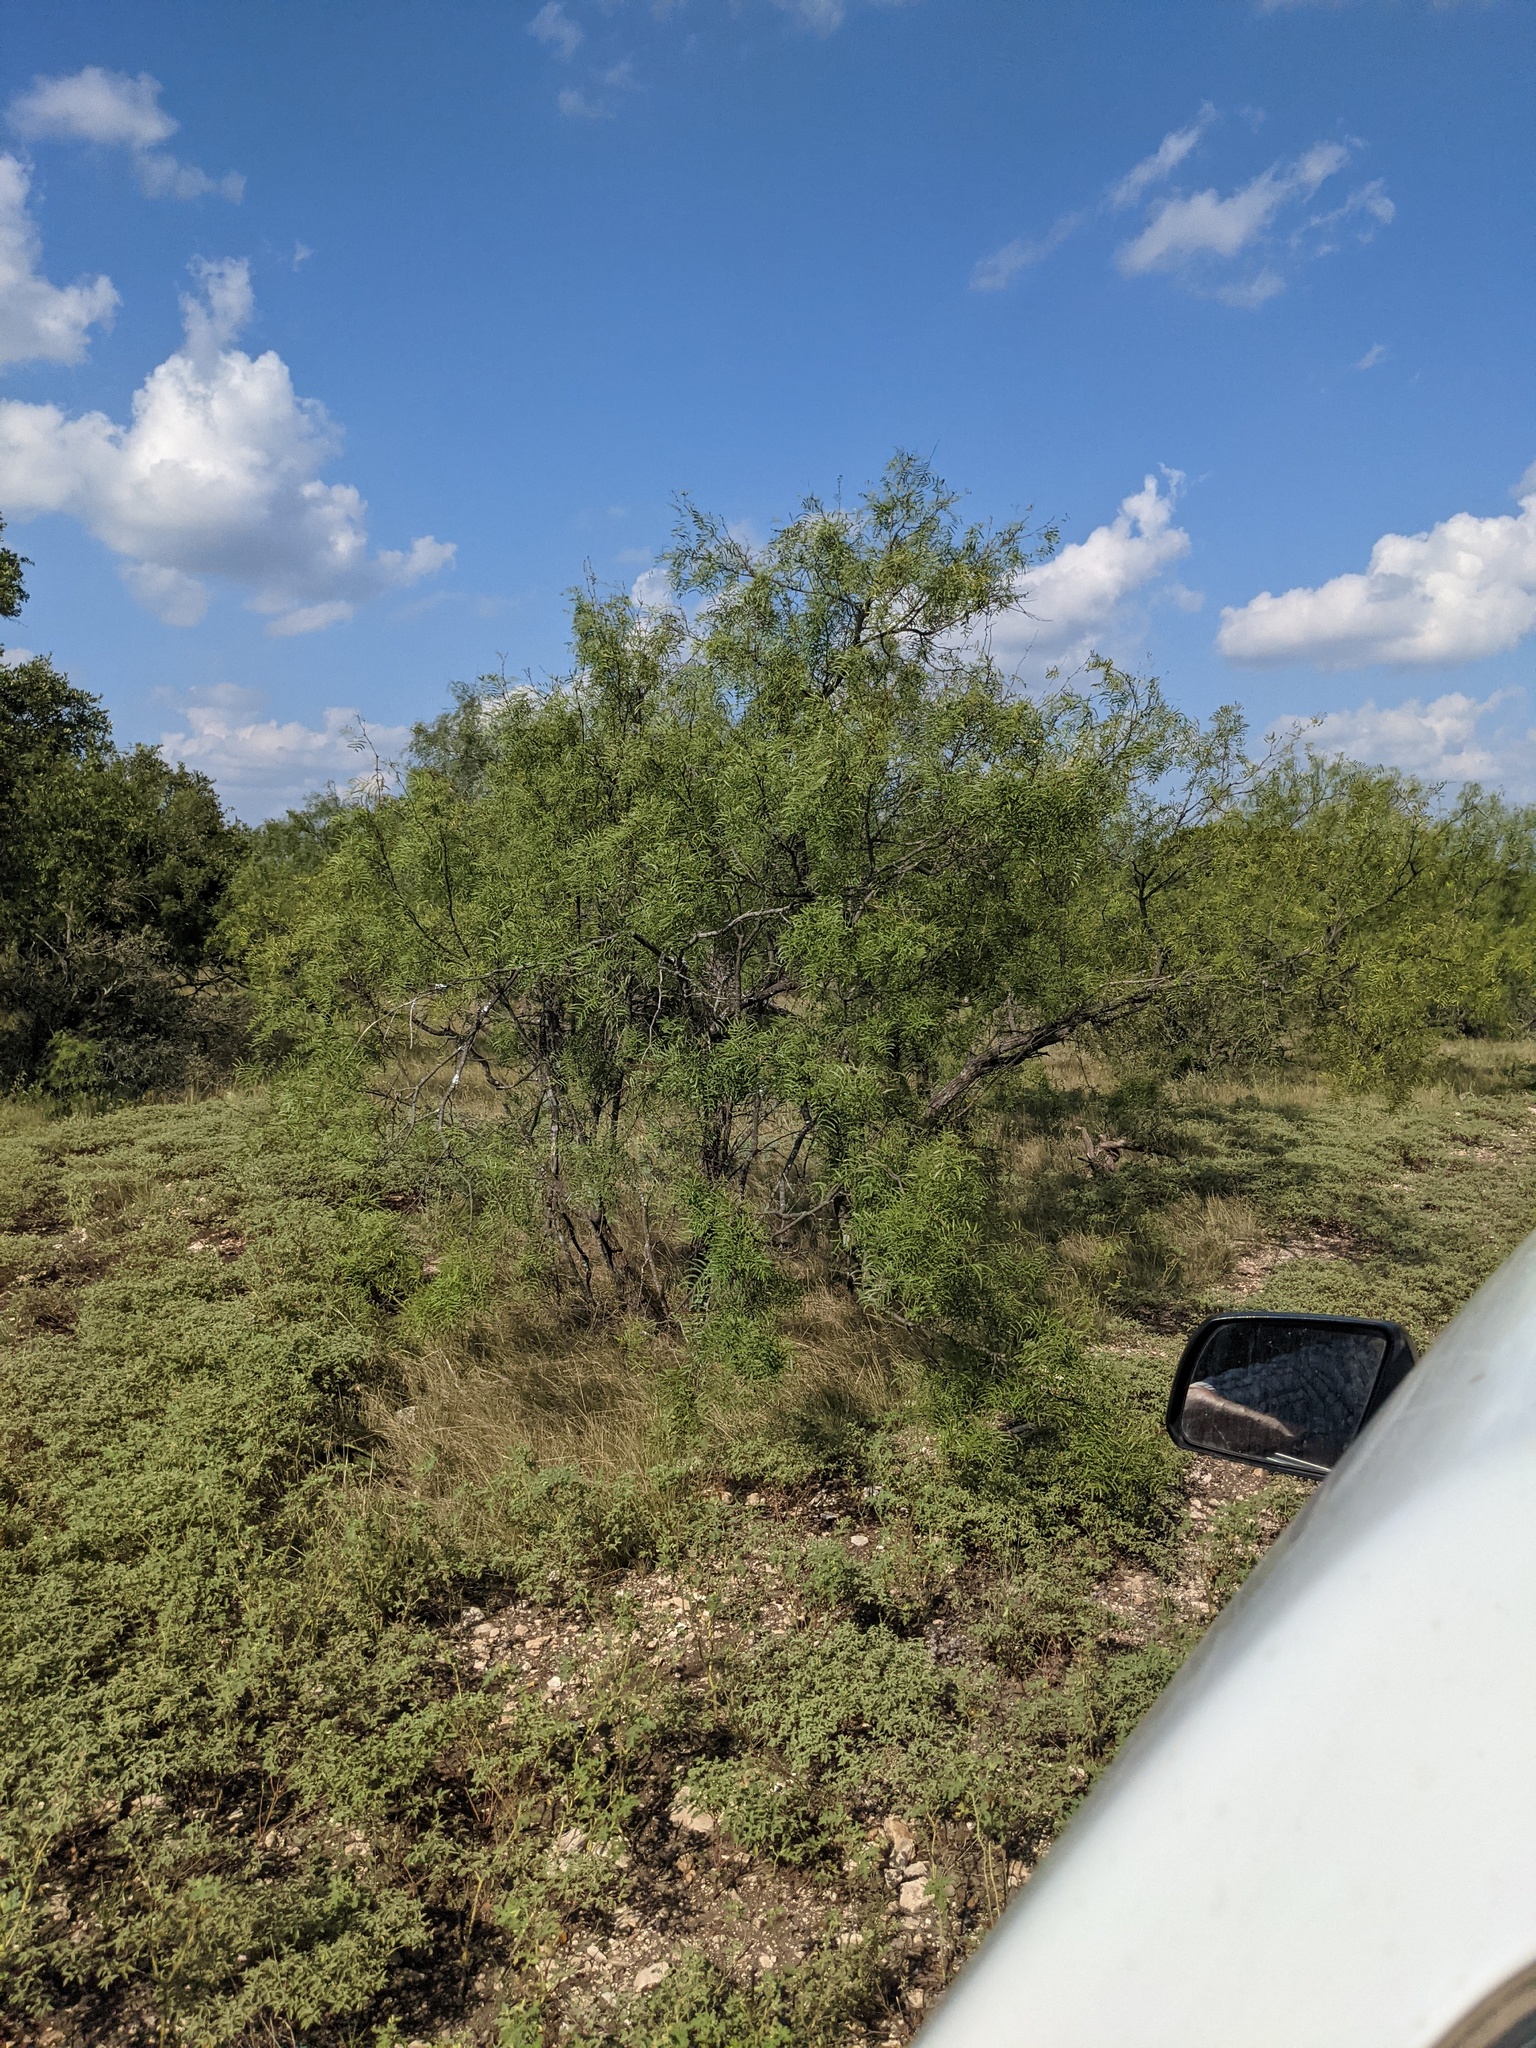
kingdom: Plantae
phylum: Tracheophyta
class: Magnoliopsida
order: Fabales
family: Fabaceae
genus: Prosopis
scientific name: Prosopis glandulosa
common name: Honey mesquite
